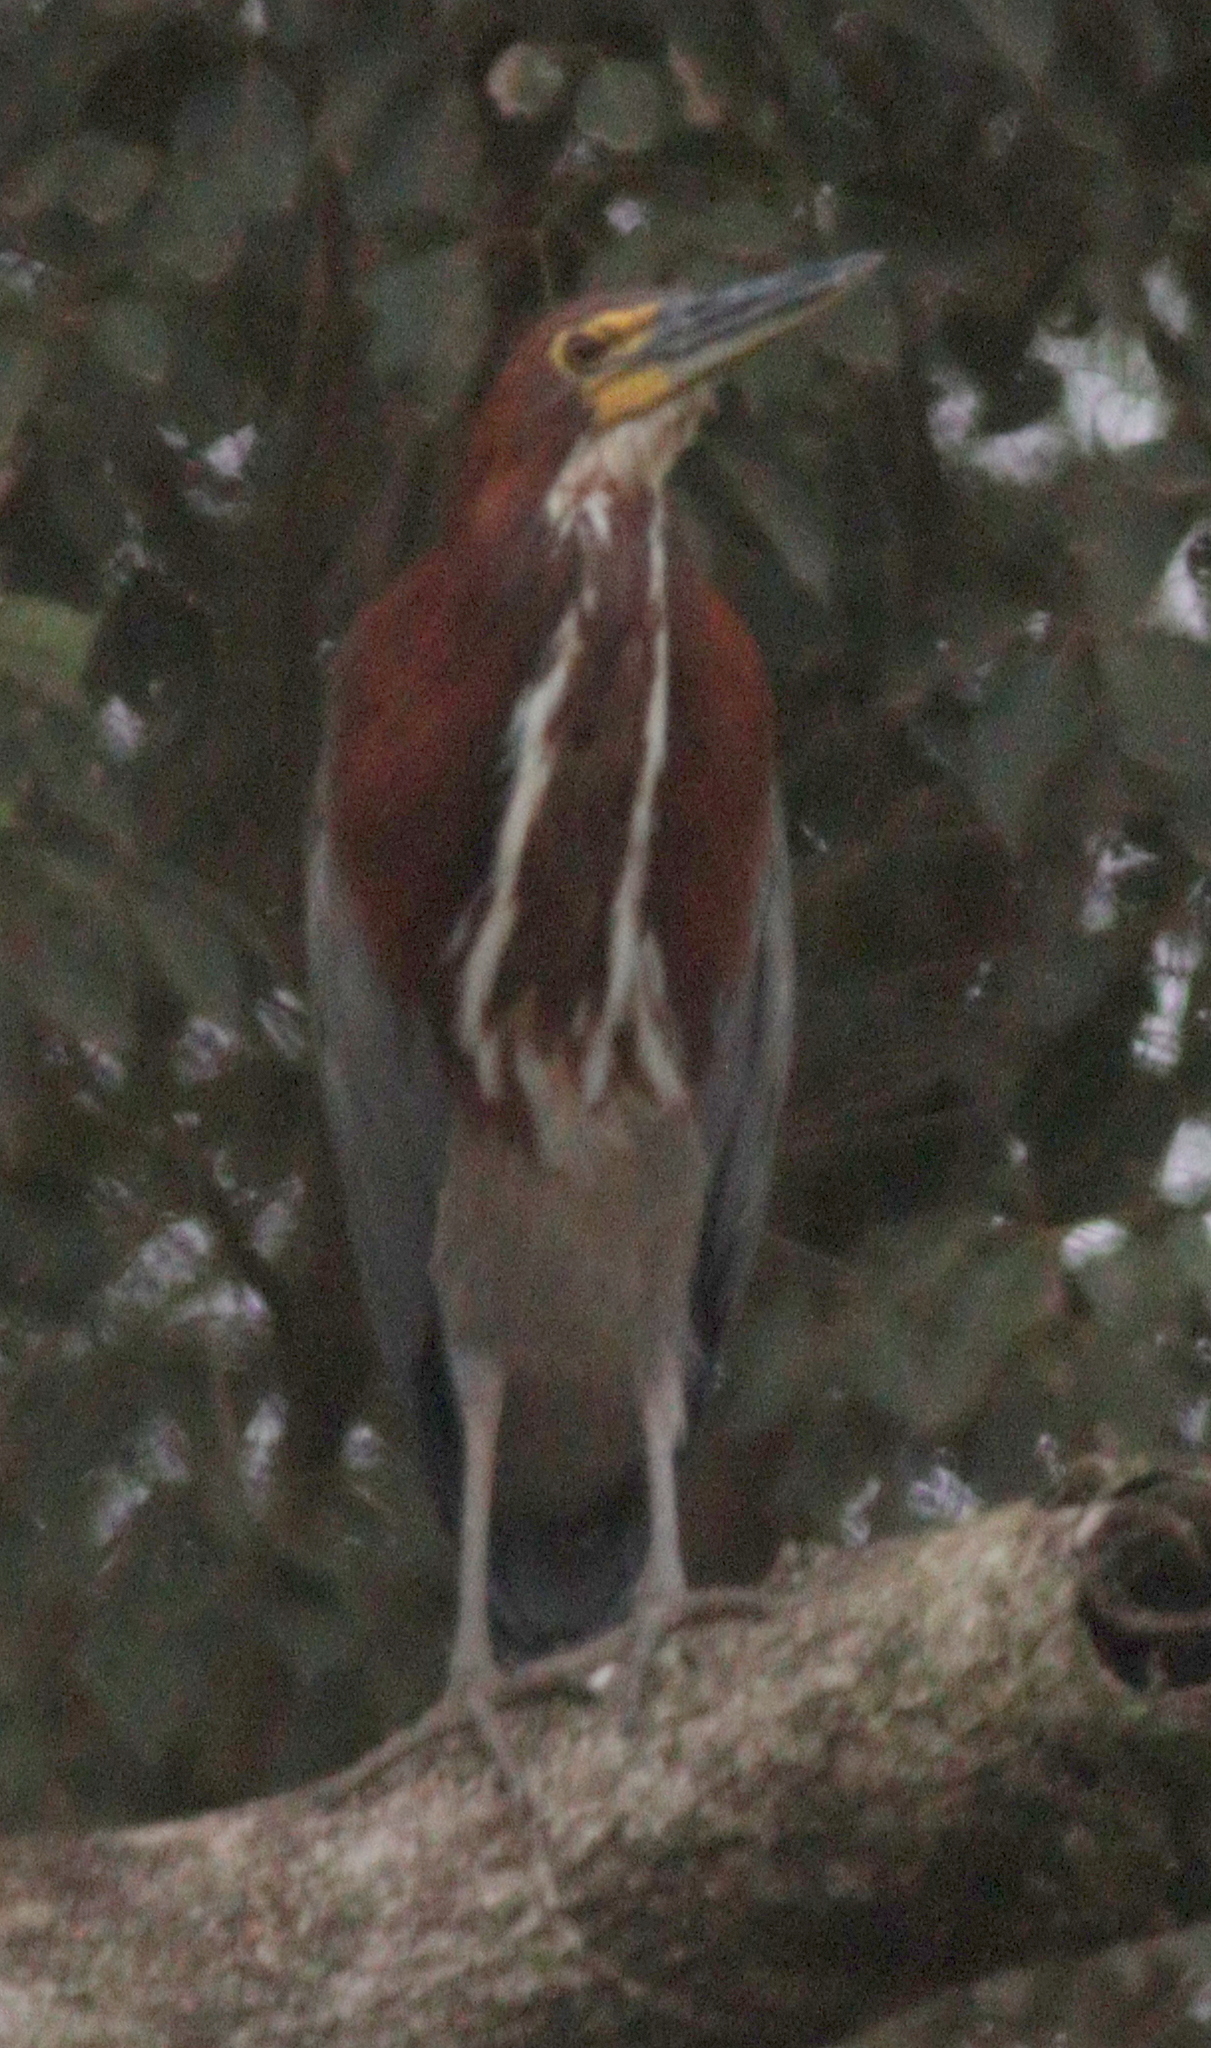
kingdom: Animalia
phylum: Chordata
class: Aves
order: Pelecaniformes
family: Ardeidae
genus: Tigrisoma
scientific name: Tigrisoma lineatum
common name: Rufescent tiger-heron
